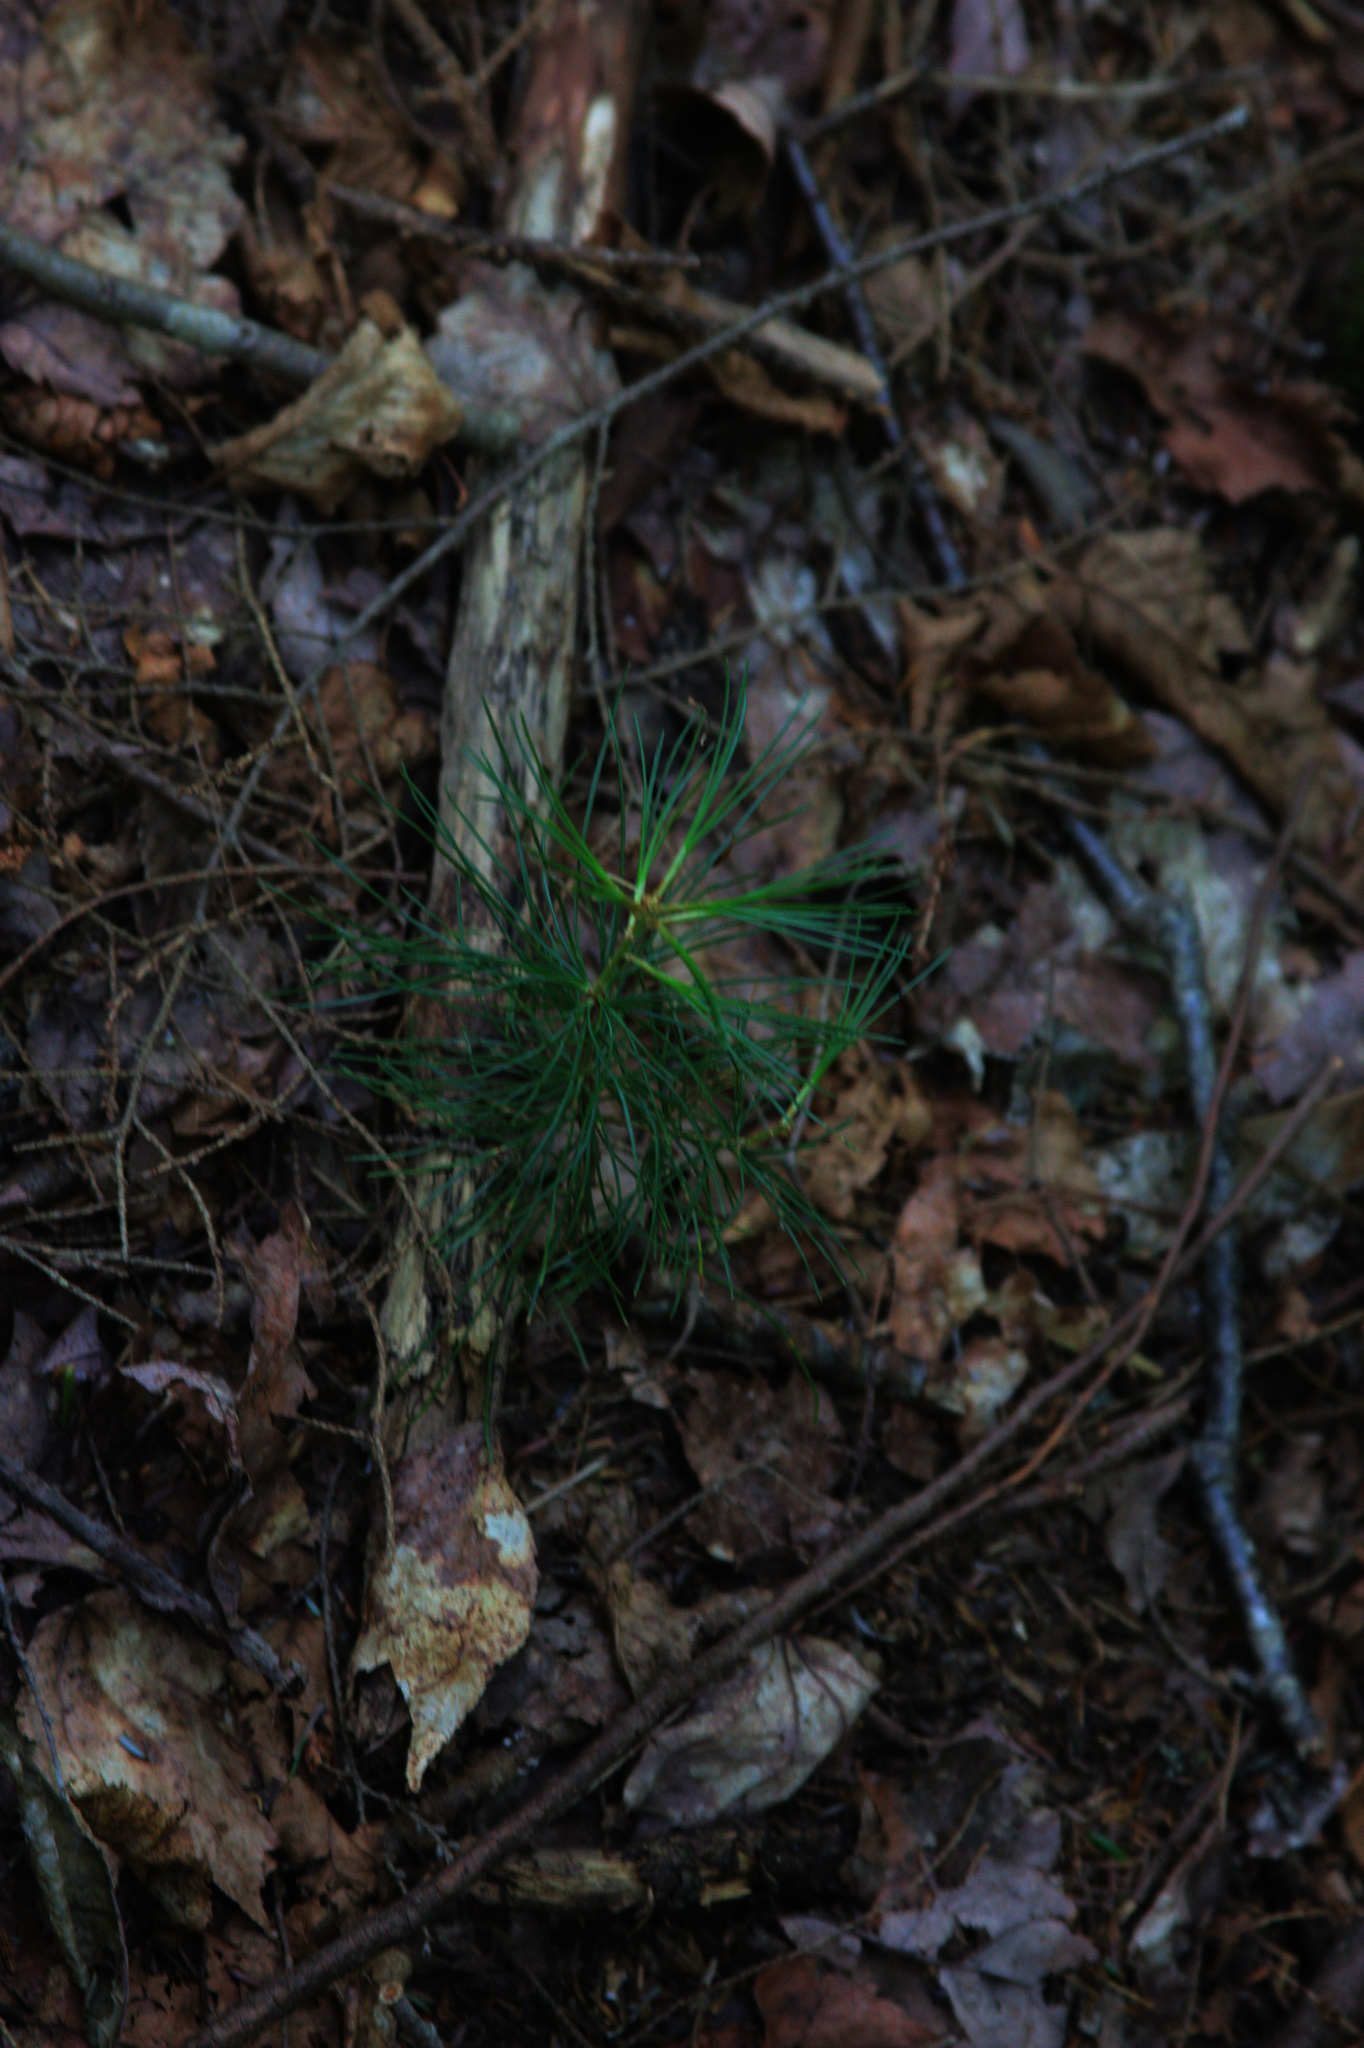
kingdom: Plantae
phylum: Tracheophyta
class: Pinopsida
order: Pinales
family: Pinaceae
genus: Pinus
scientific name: Pinus strobus
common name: Weymouth pine
